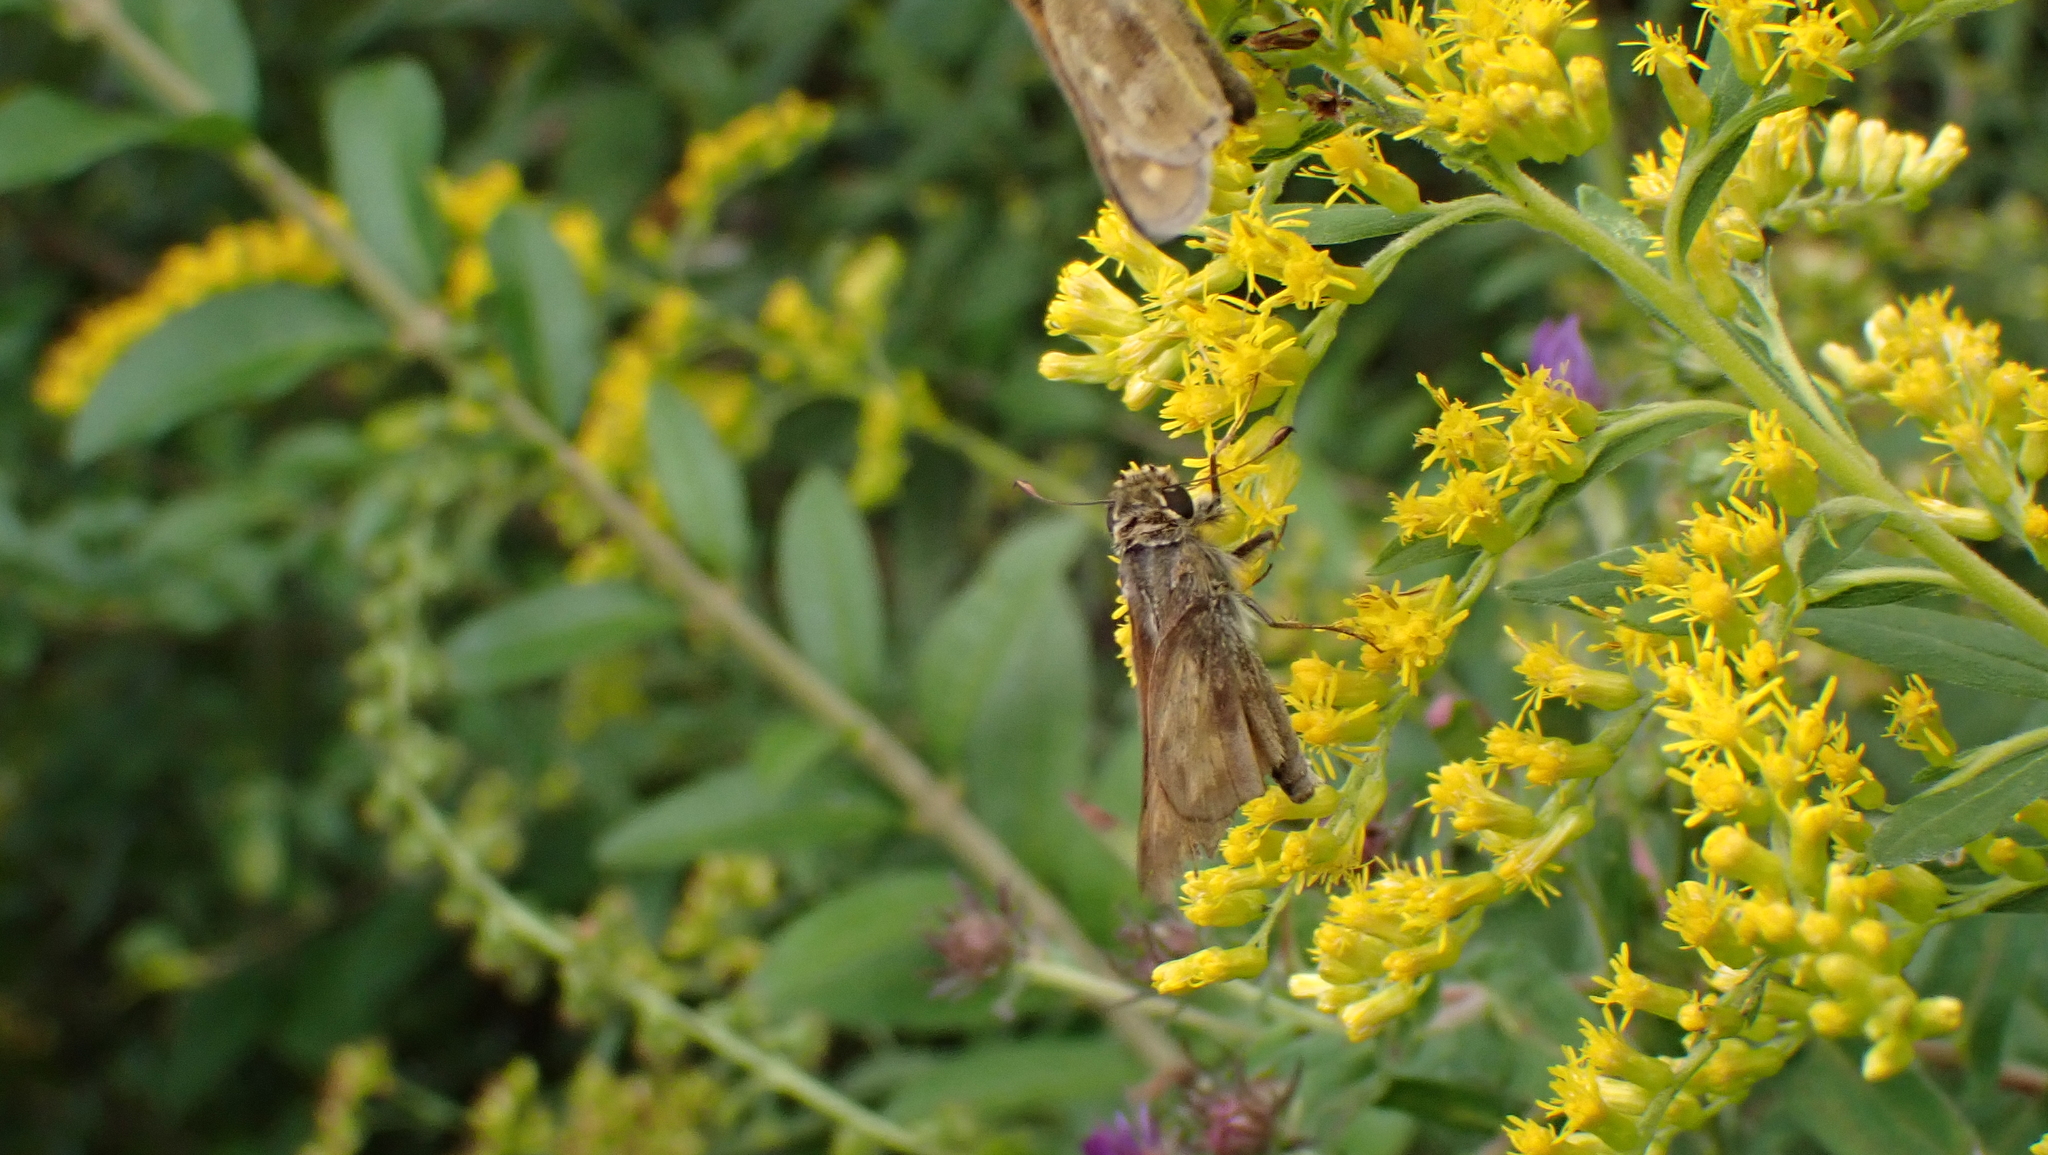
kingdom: Animalia
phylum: Arthropoda
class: Insecta
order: Lepidoptera
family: Hesperiidae
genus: Atalopedes
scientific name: Atalopedes
